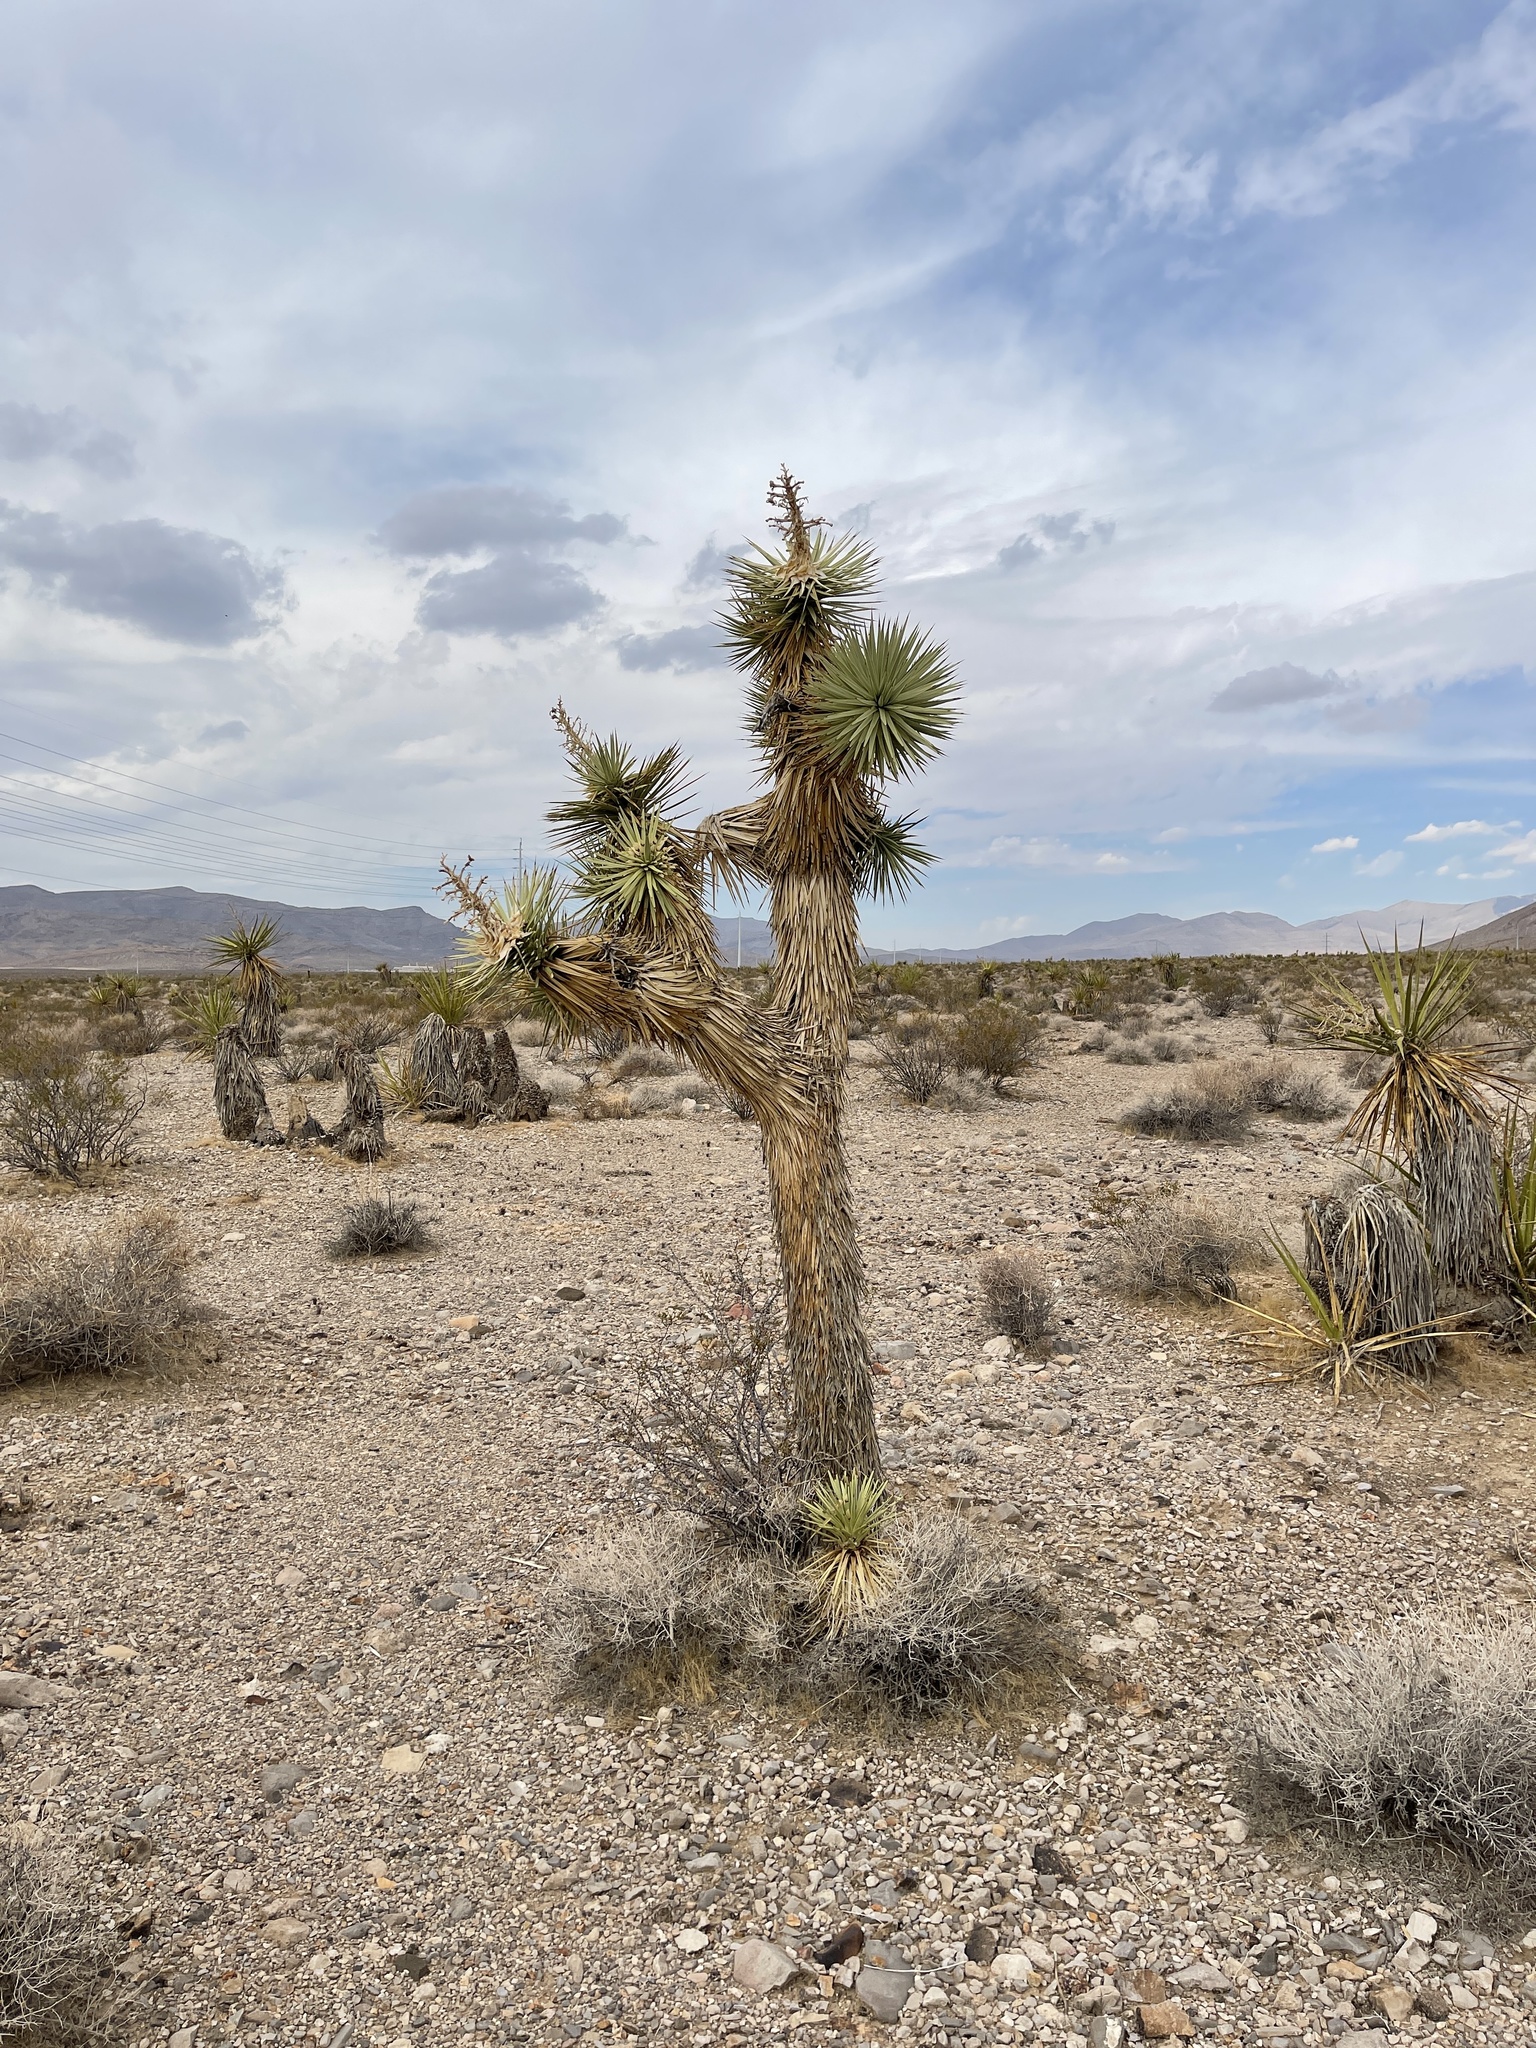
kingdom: Plantae
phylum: Tracheophyta
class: Liliopsida
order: Asparagales
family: Asparagaceae
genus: Yucca
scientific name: Yucca brevifolia
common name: Joshua tree
